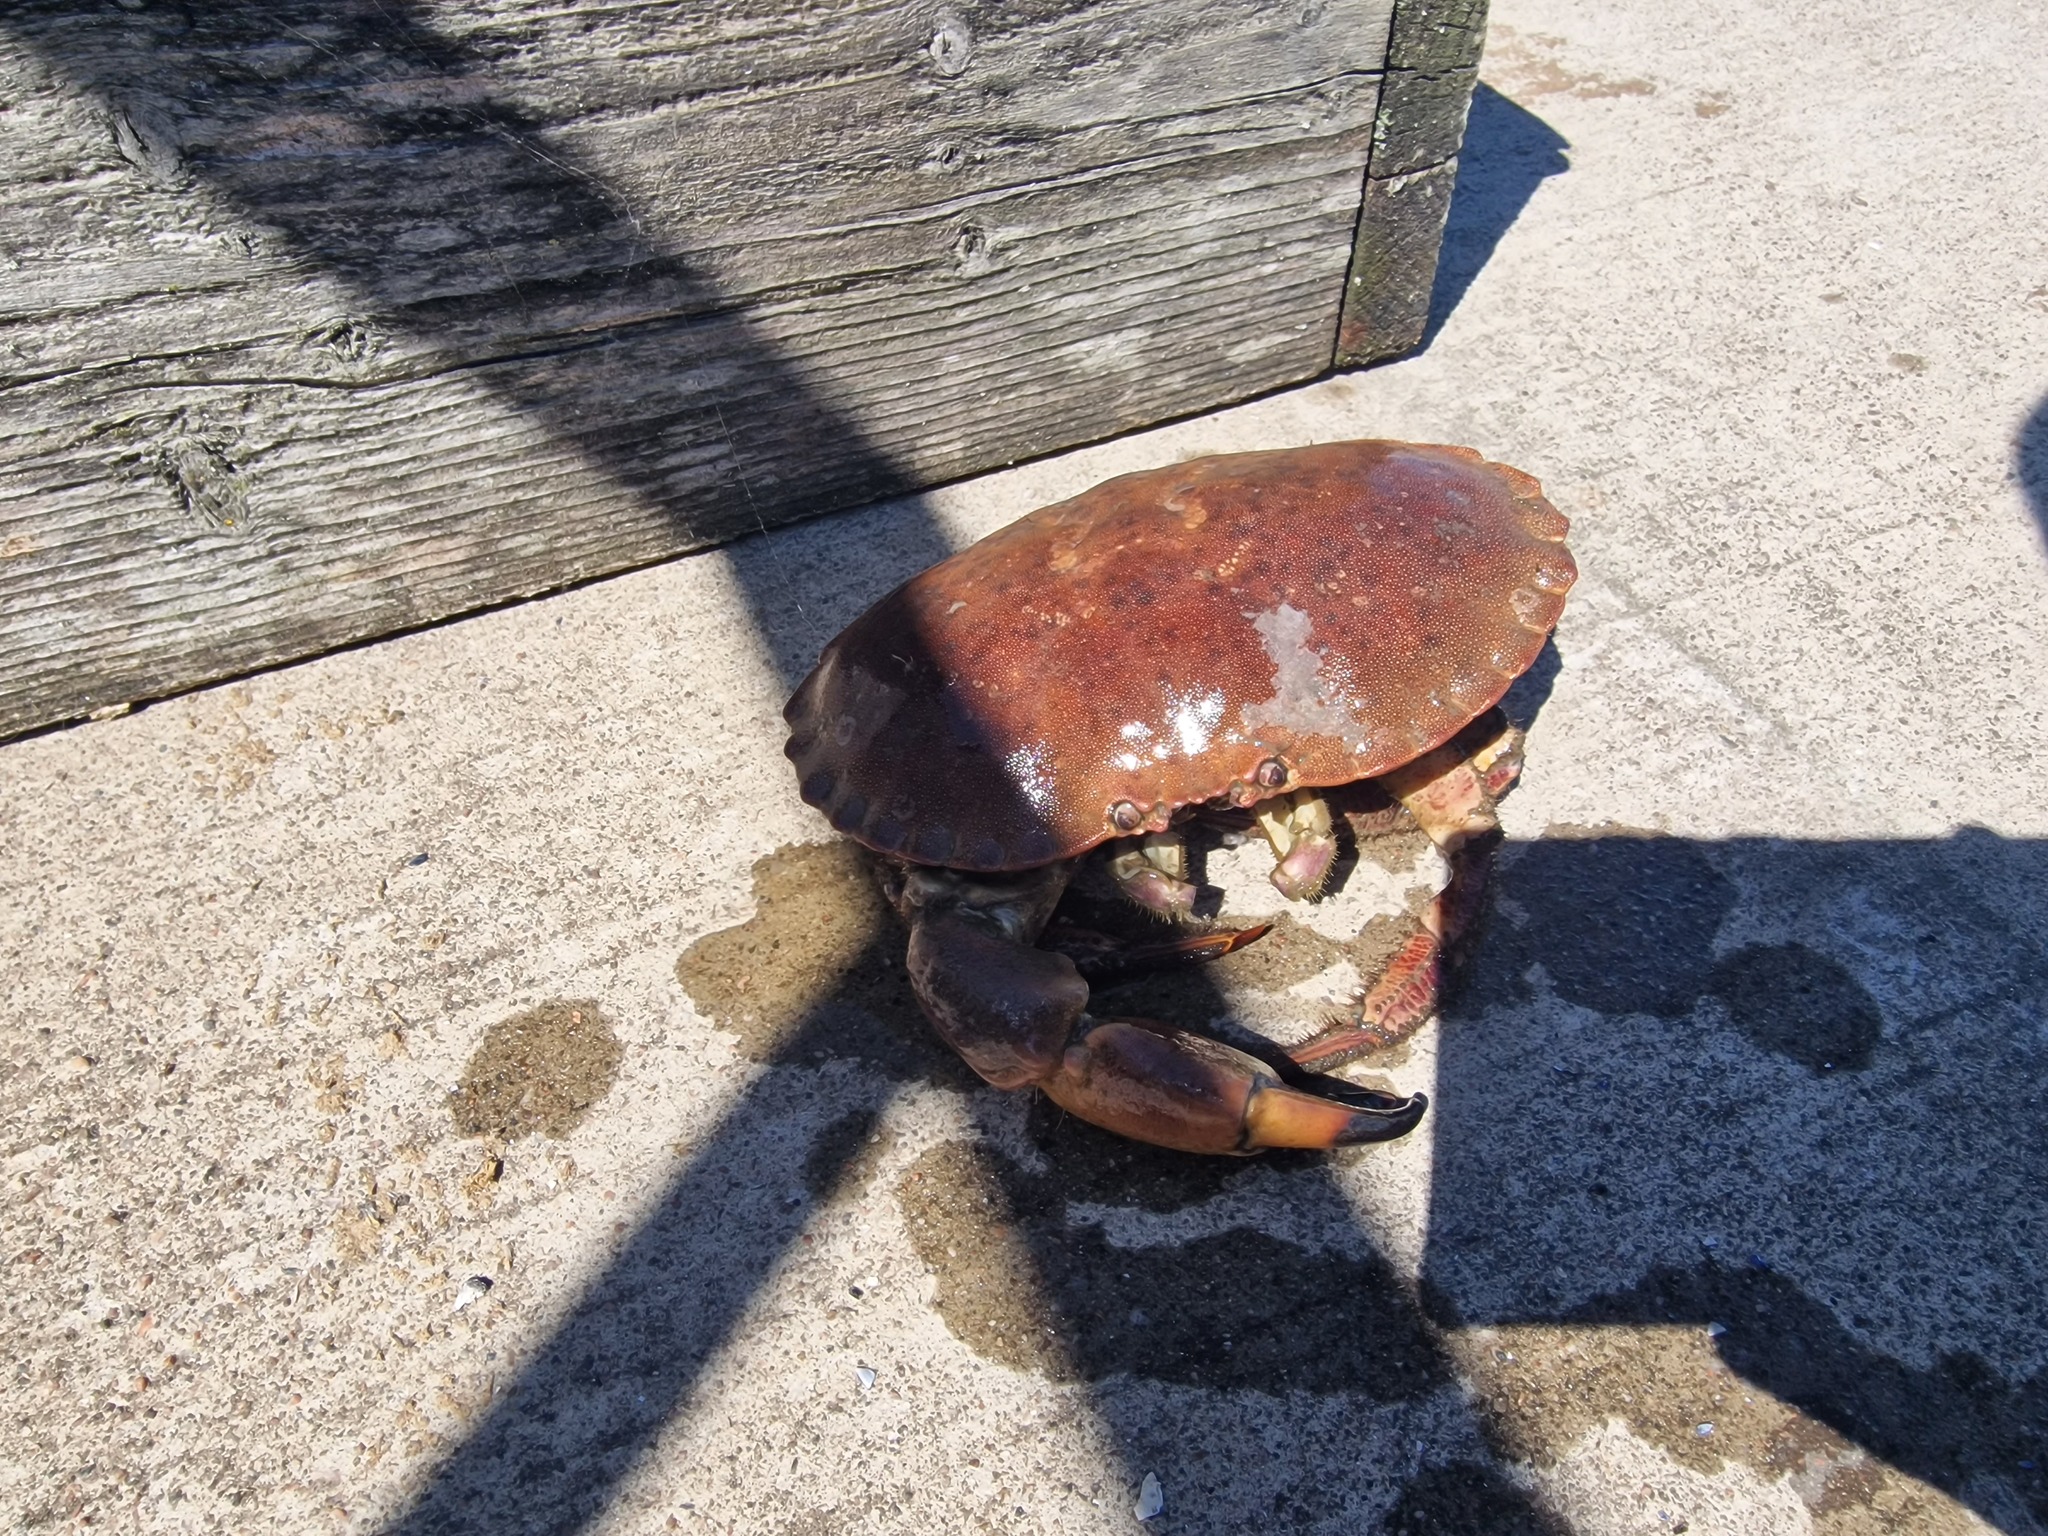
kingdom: Animalia
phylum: Arthropoda
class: Malacostraca
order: Decapoda
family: Cancridae
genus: Cancer
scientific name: Cancer pagurus
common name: Edible crab
